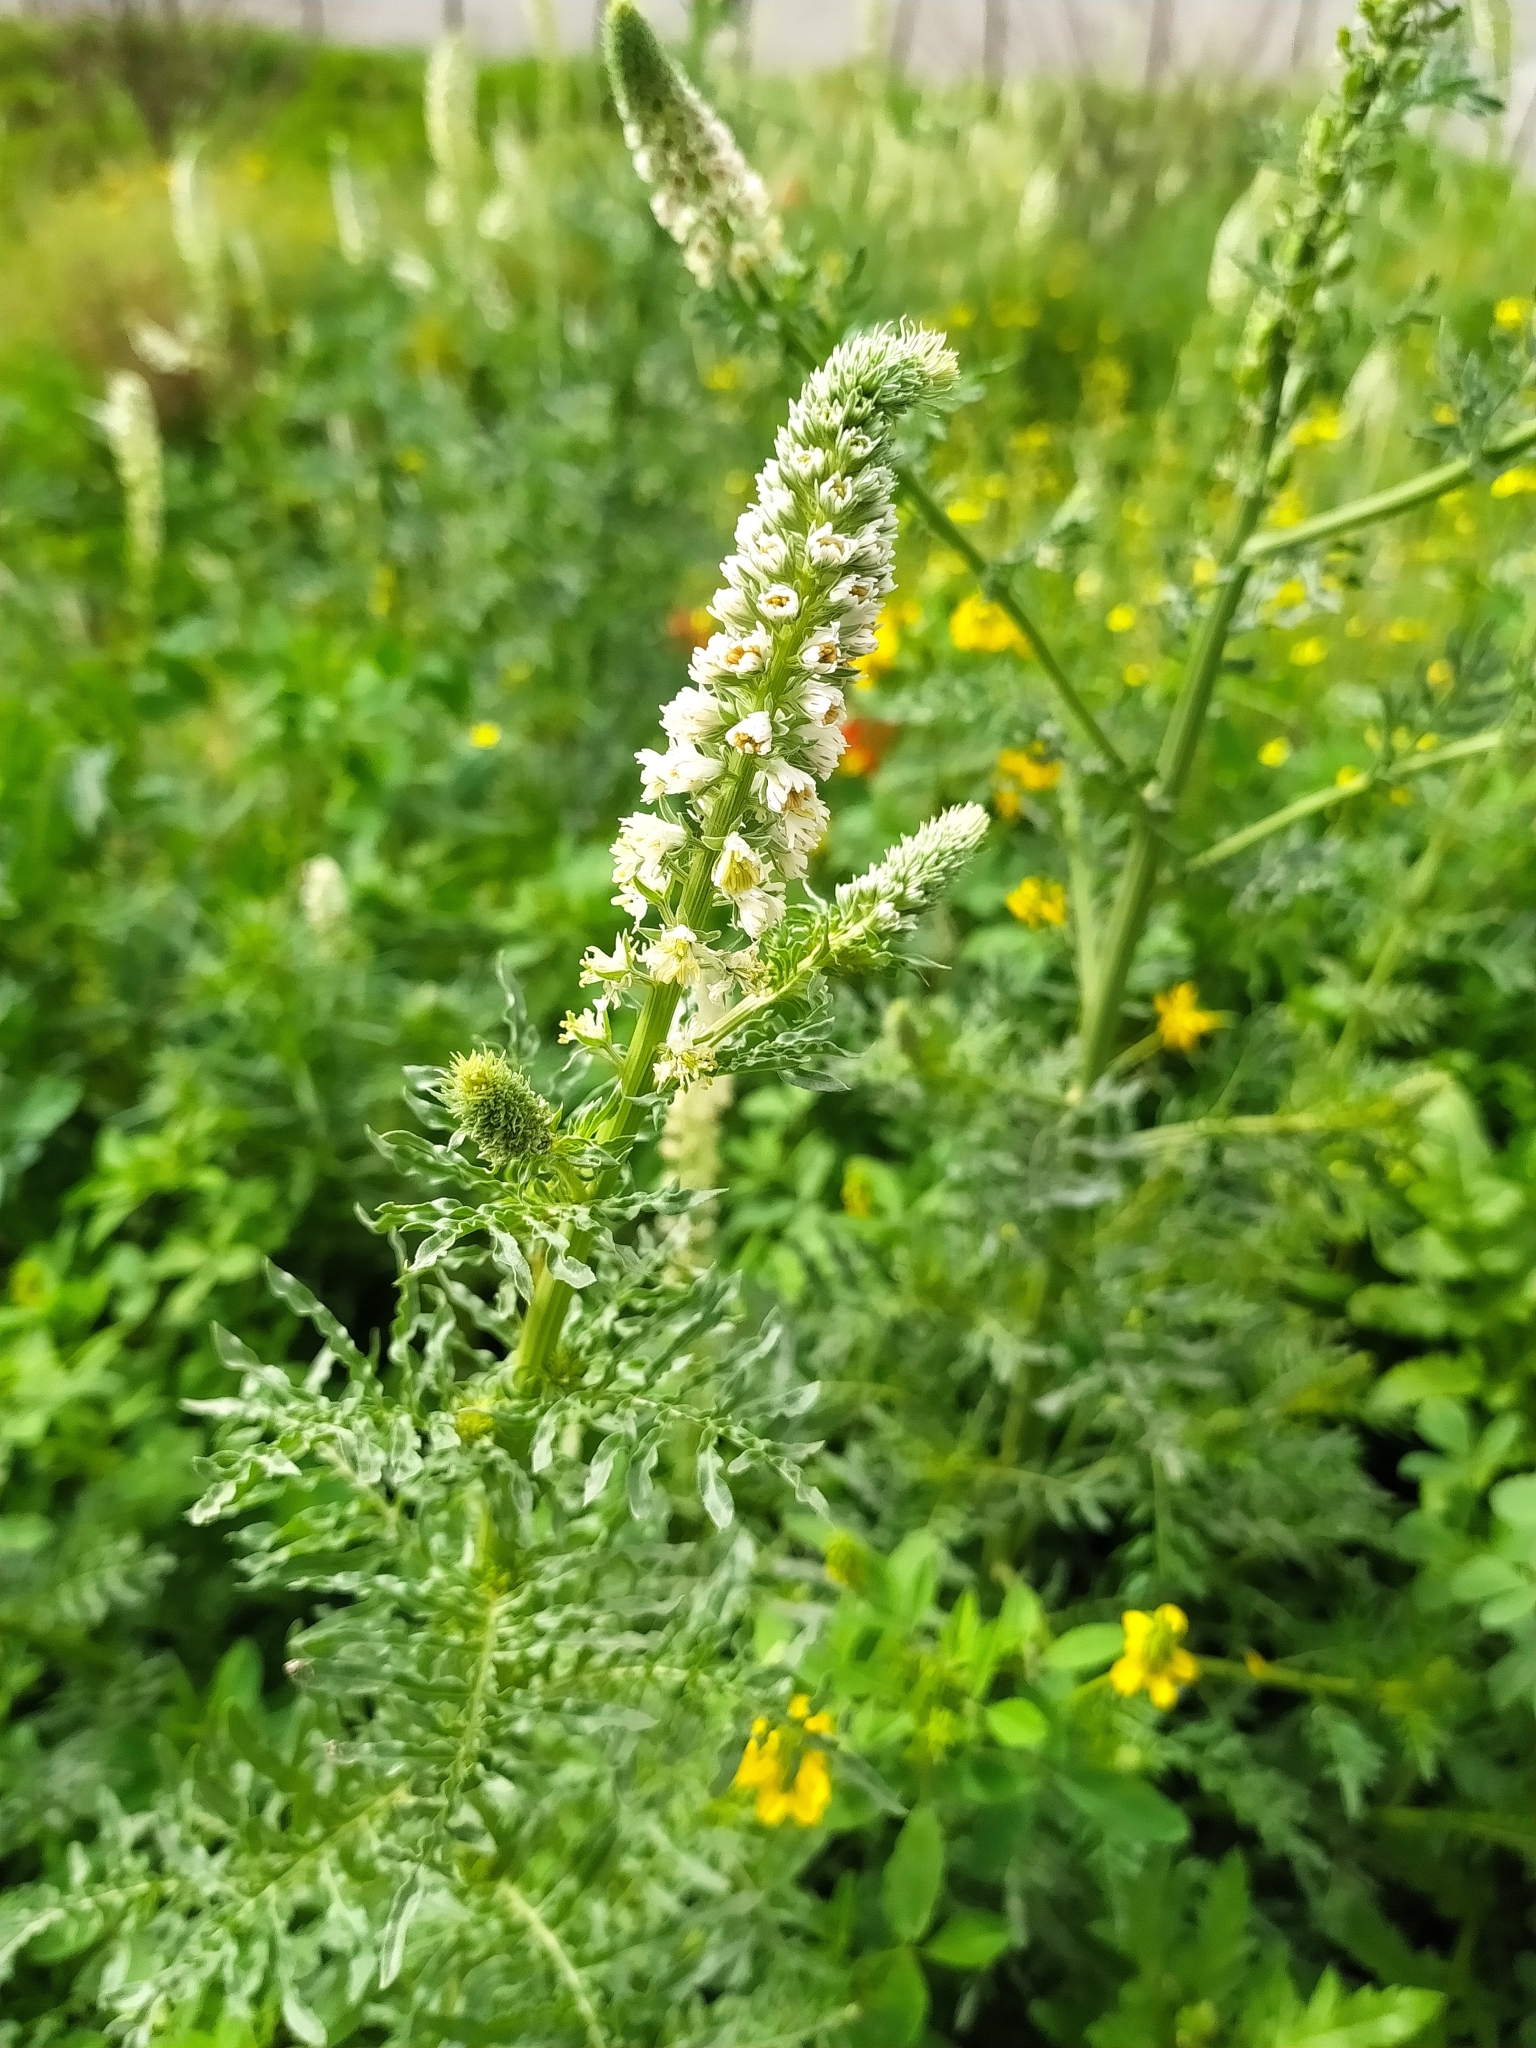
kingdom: Plantae
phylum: Tracheophyta
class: Magnoliopsida
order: Brassicales
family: Resedaceae
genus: Reseda
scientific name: Reseda alba
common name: White mignonette
